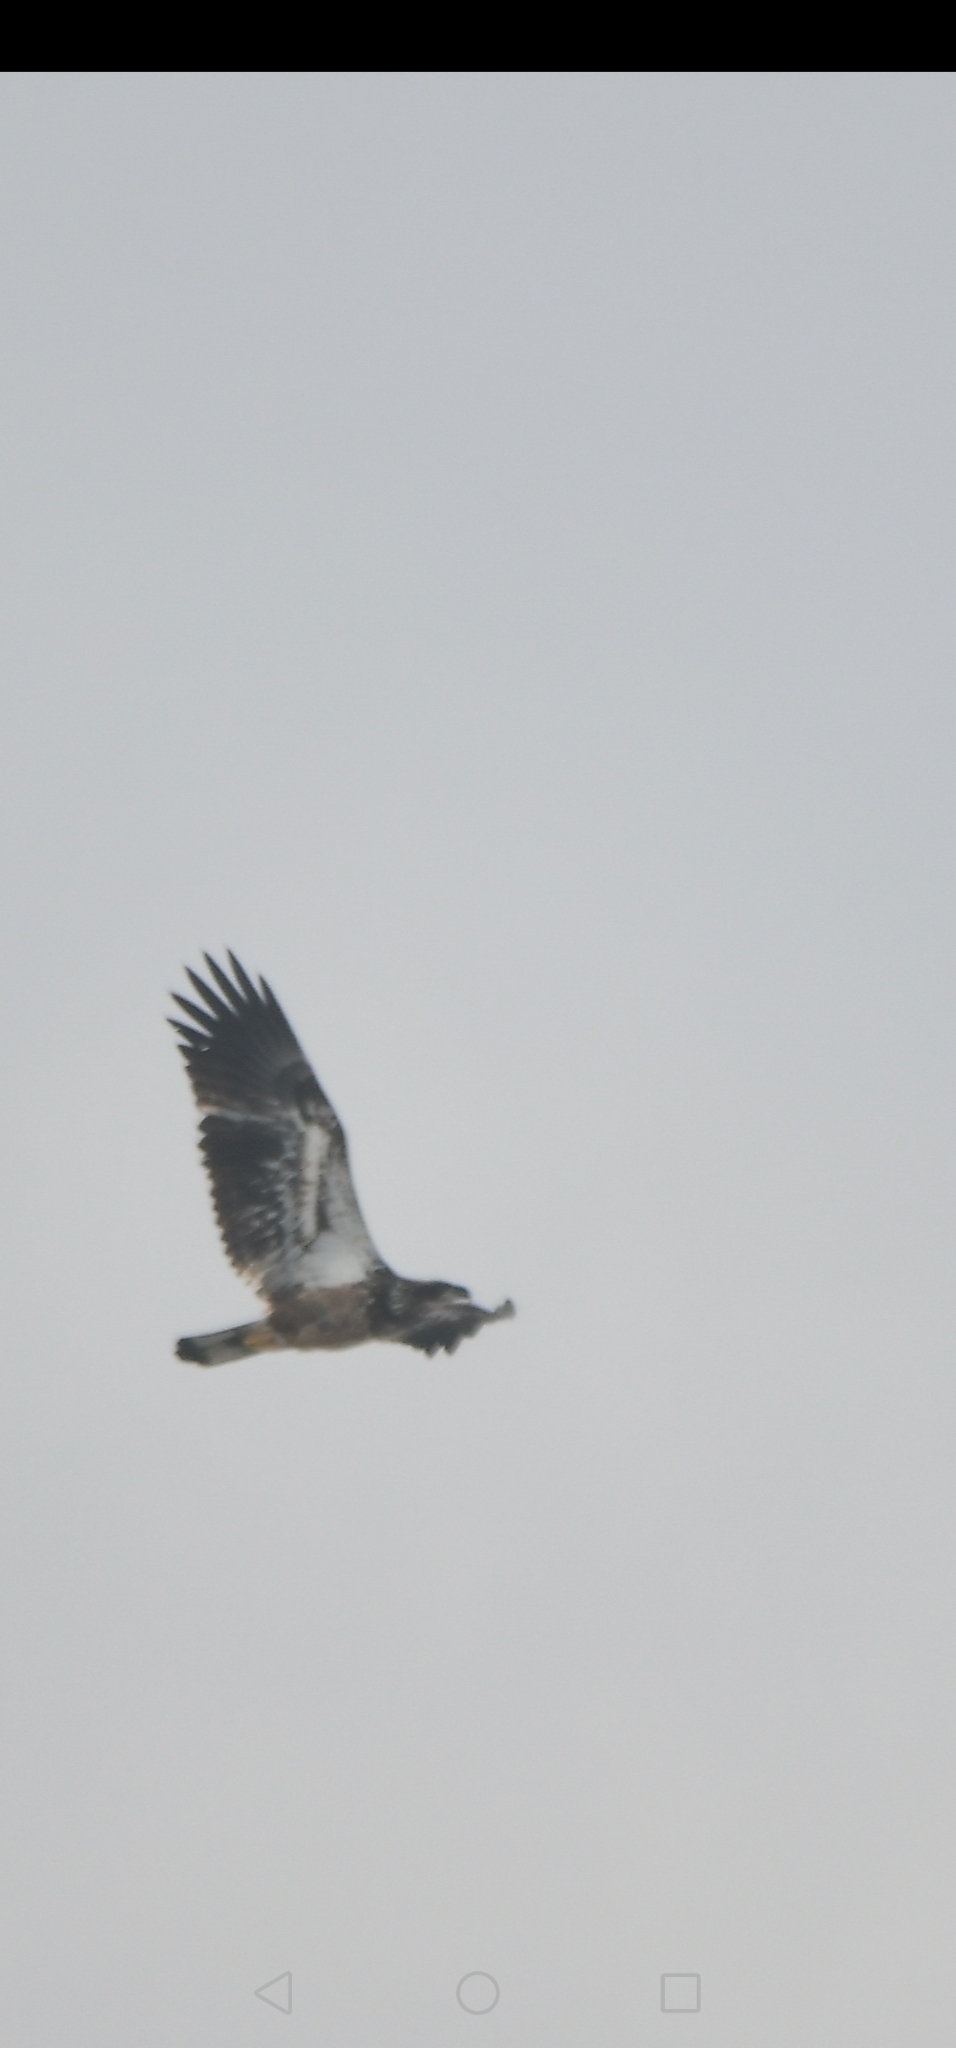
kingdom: Animalia
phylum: Chordata
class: Aves
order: Accipitriformes
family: Accipitridae
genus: Haliaeetus
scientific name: Haliaeetus leucocephalus
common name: Bald eagle
